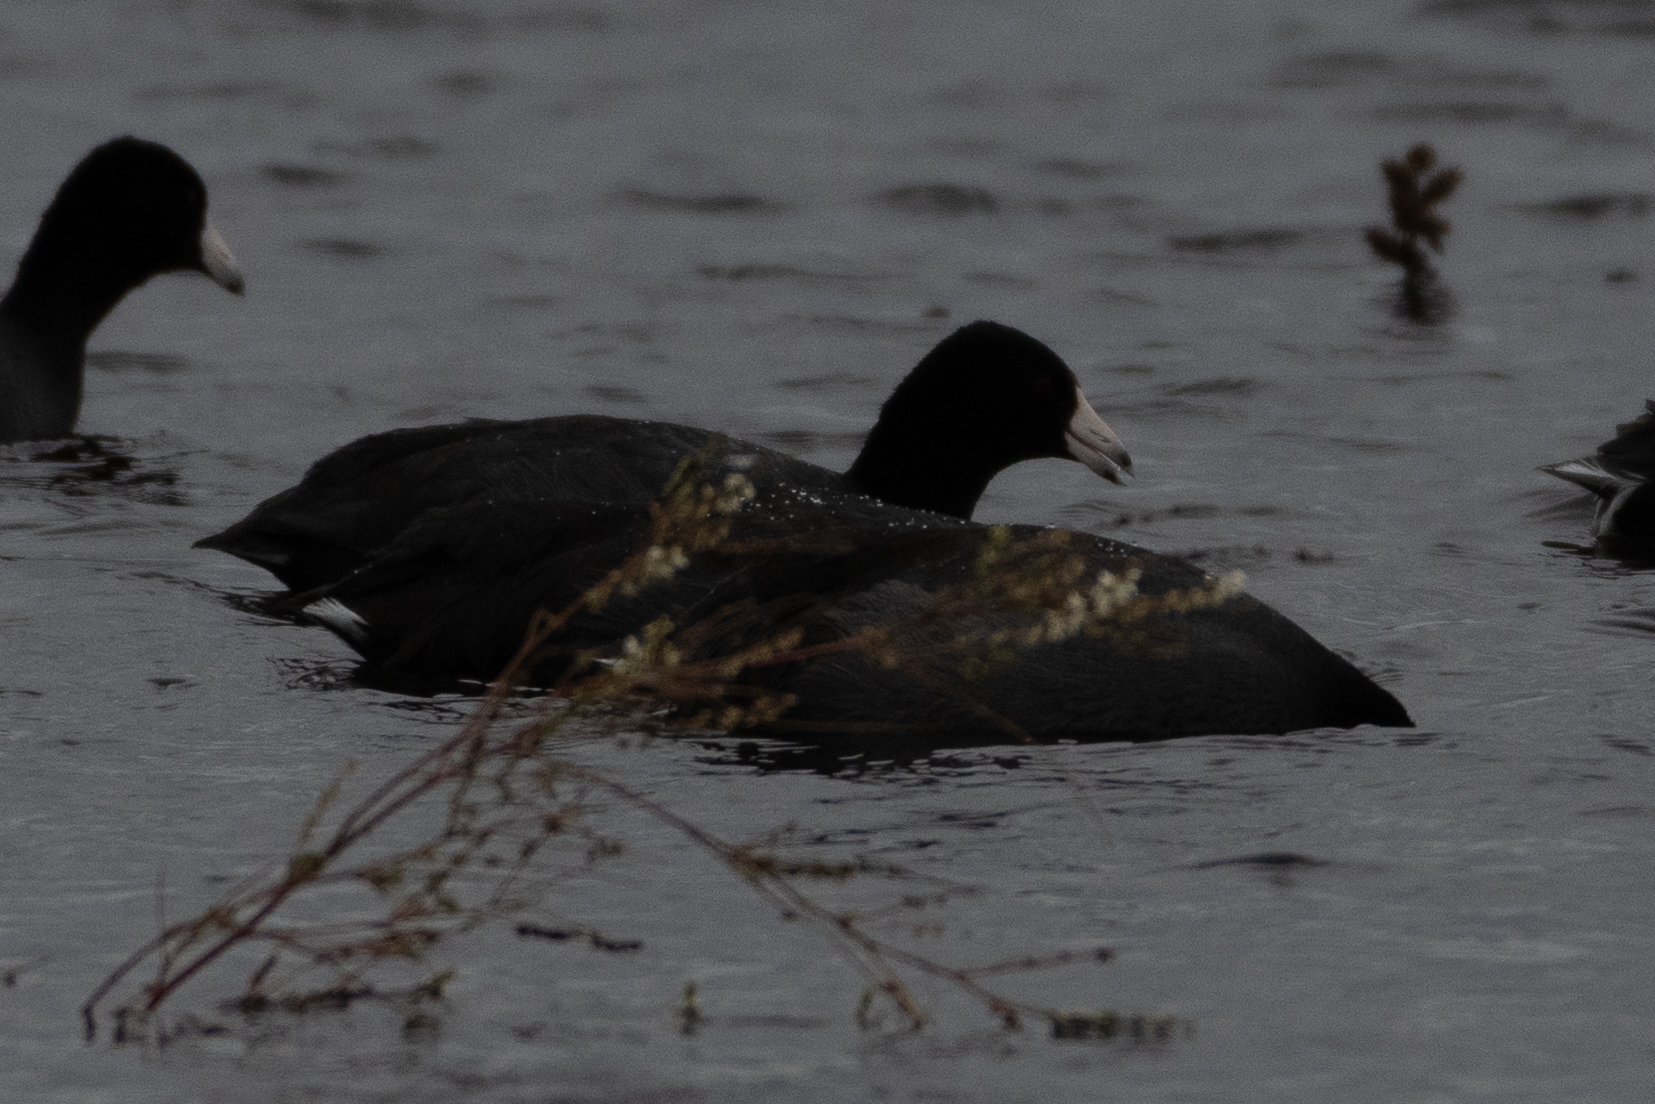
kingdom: Animalia
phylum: Chordata
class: Aves
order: Gruiformes
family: Rallidae
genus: Fulica
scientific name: Fulica americana
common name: American coot
